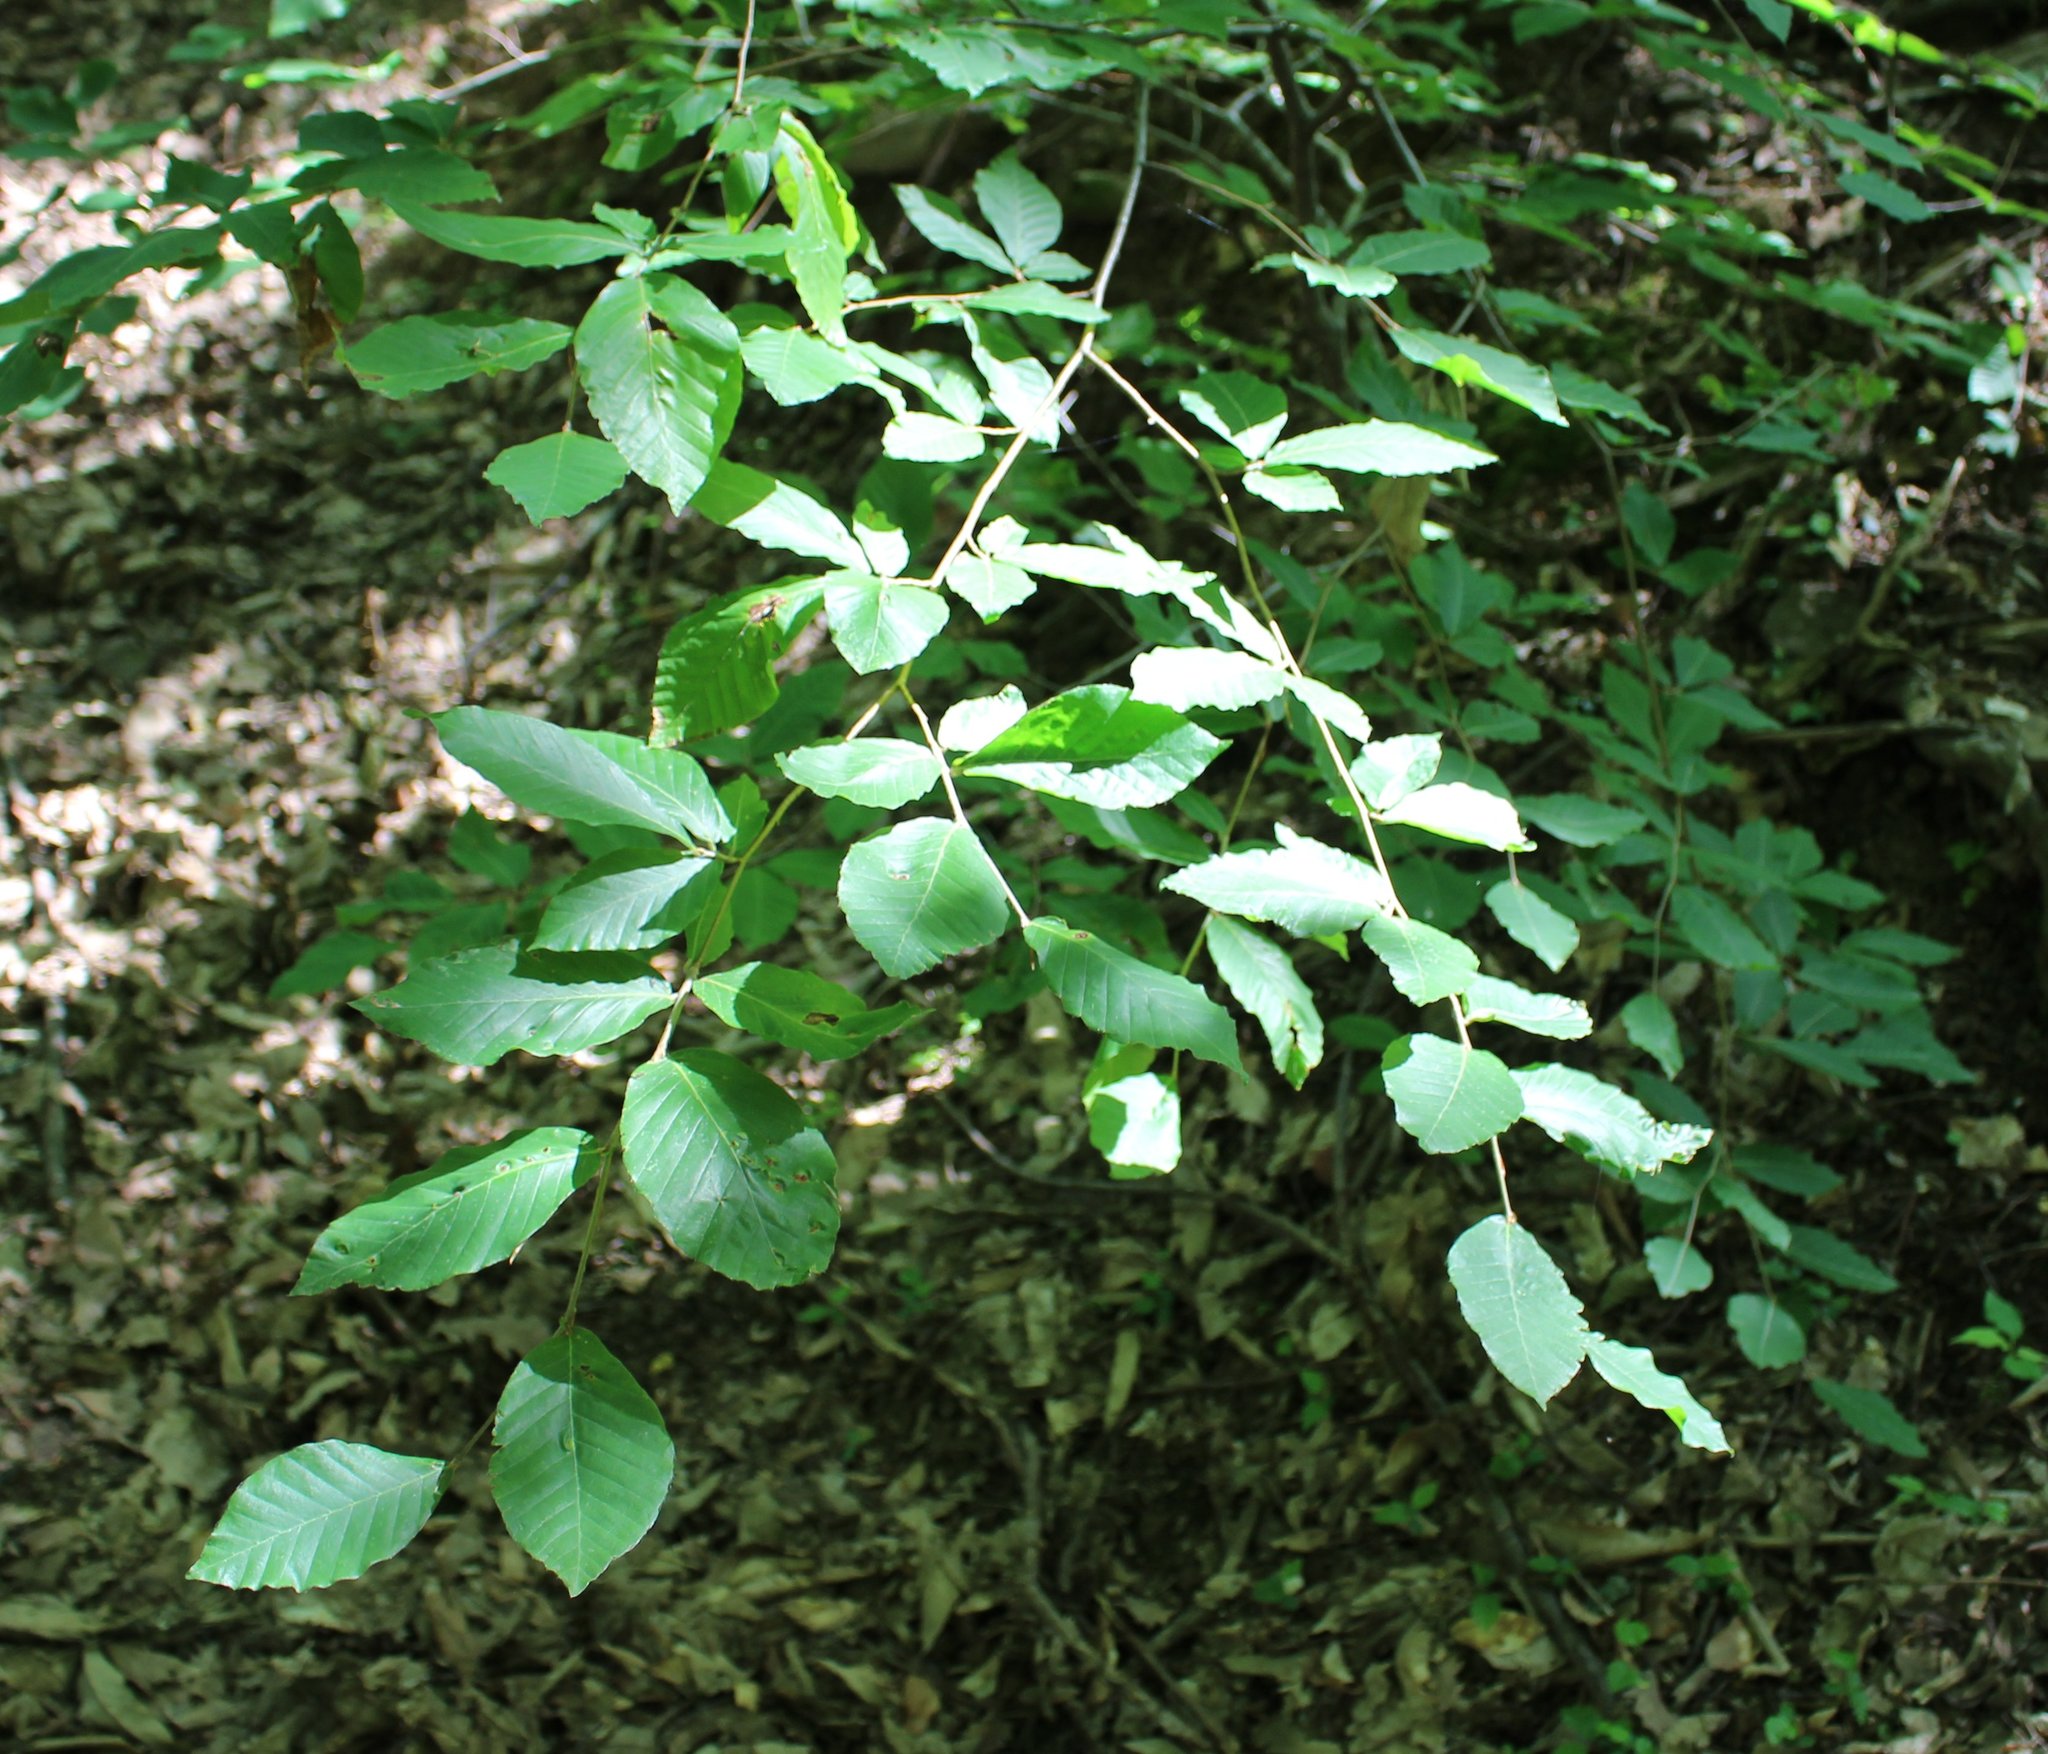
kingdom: Plantae
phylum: Tracheophyta
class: Magnoliopsida
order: Fagales
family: Fagaceae
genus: Fagus
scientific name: Fagus orientalis
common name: Oriental beech
